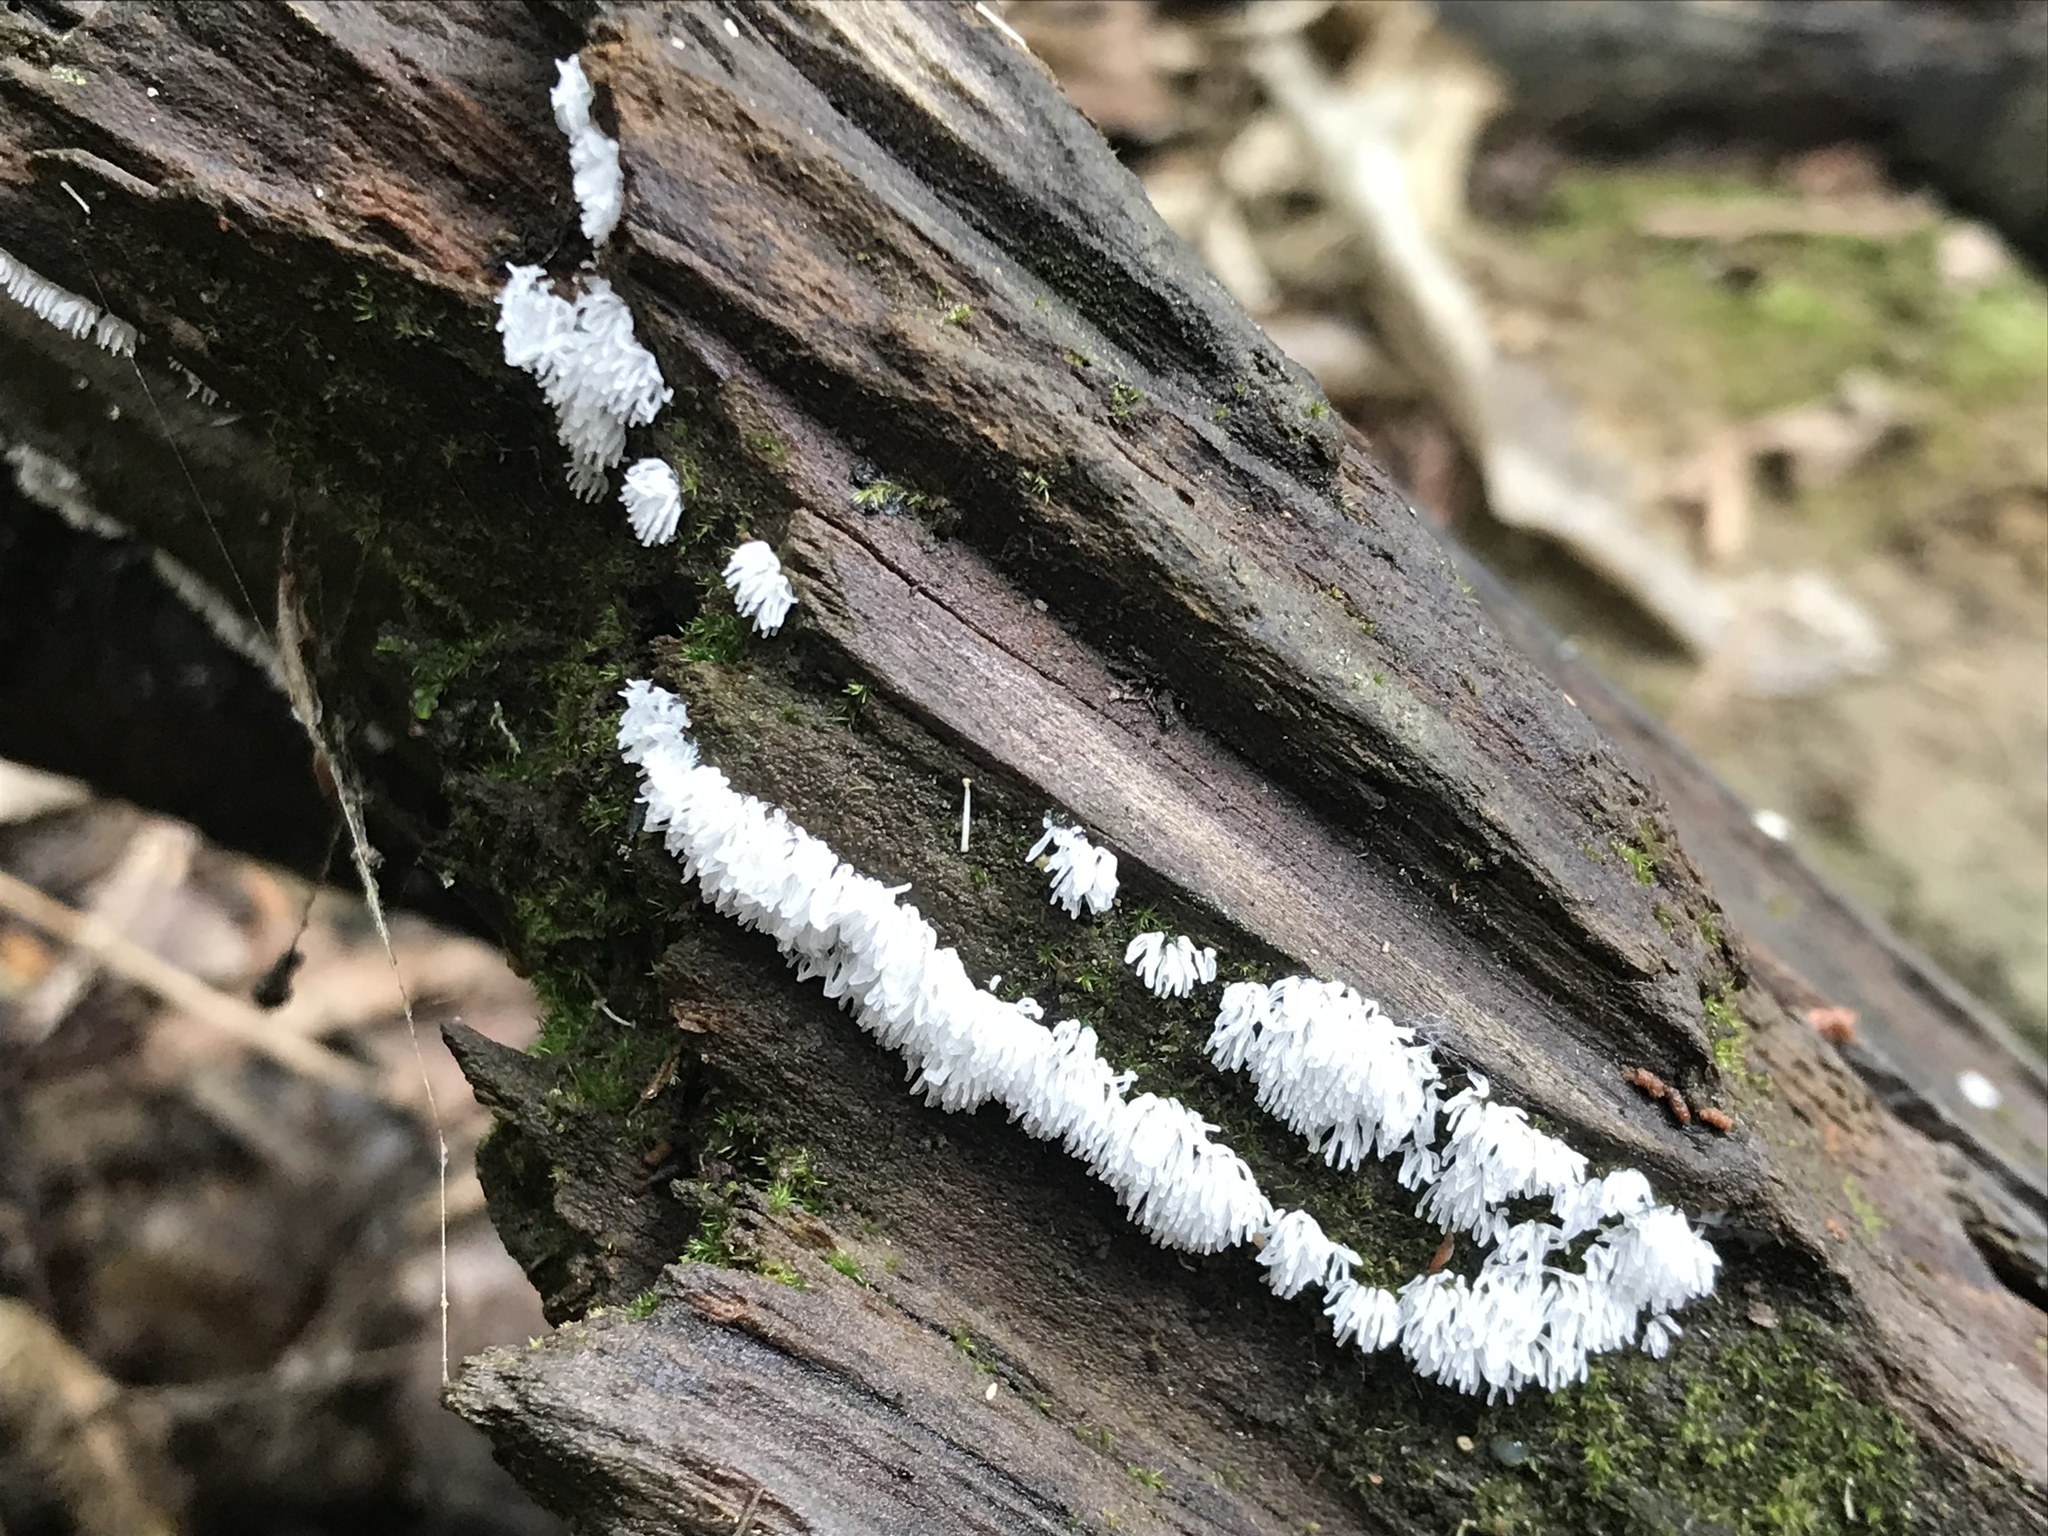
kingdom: Protozoa
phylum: Mycetozoa
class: Protosteliomycetes
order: Ceratiomyxales
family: Ceratiomyxaceae
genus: Ceratiomyxa
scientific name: Ceratiomyxa fruticulosa
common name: Honeycomb coral slime mold
